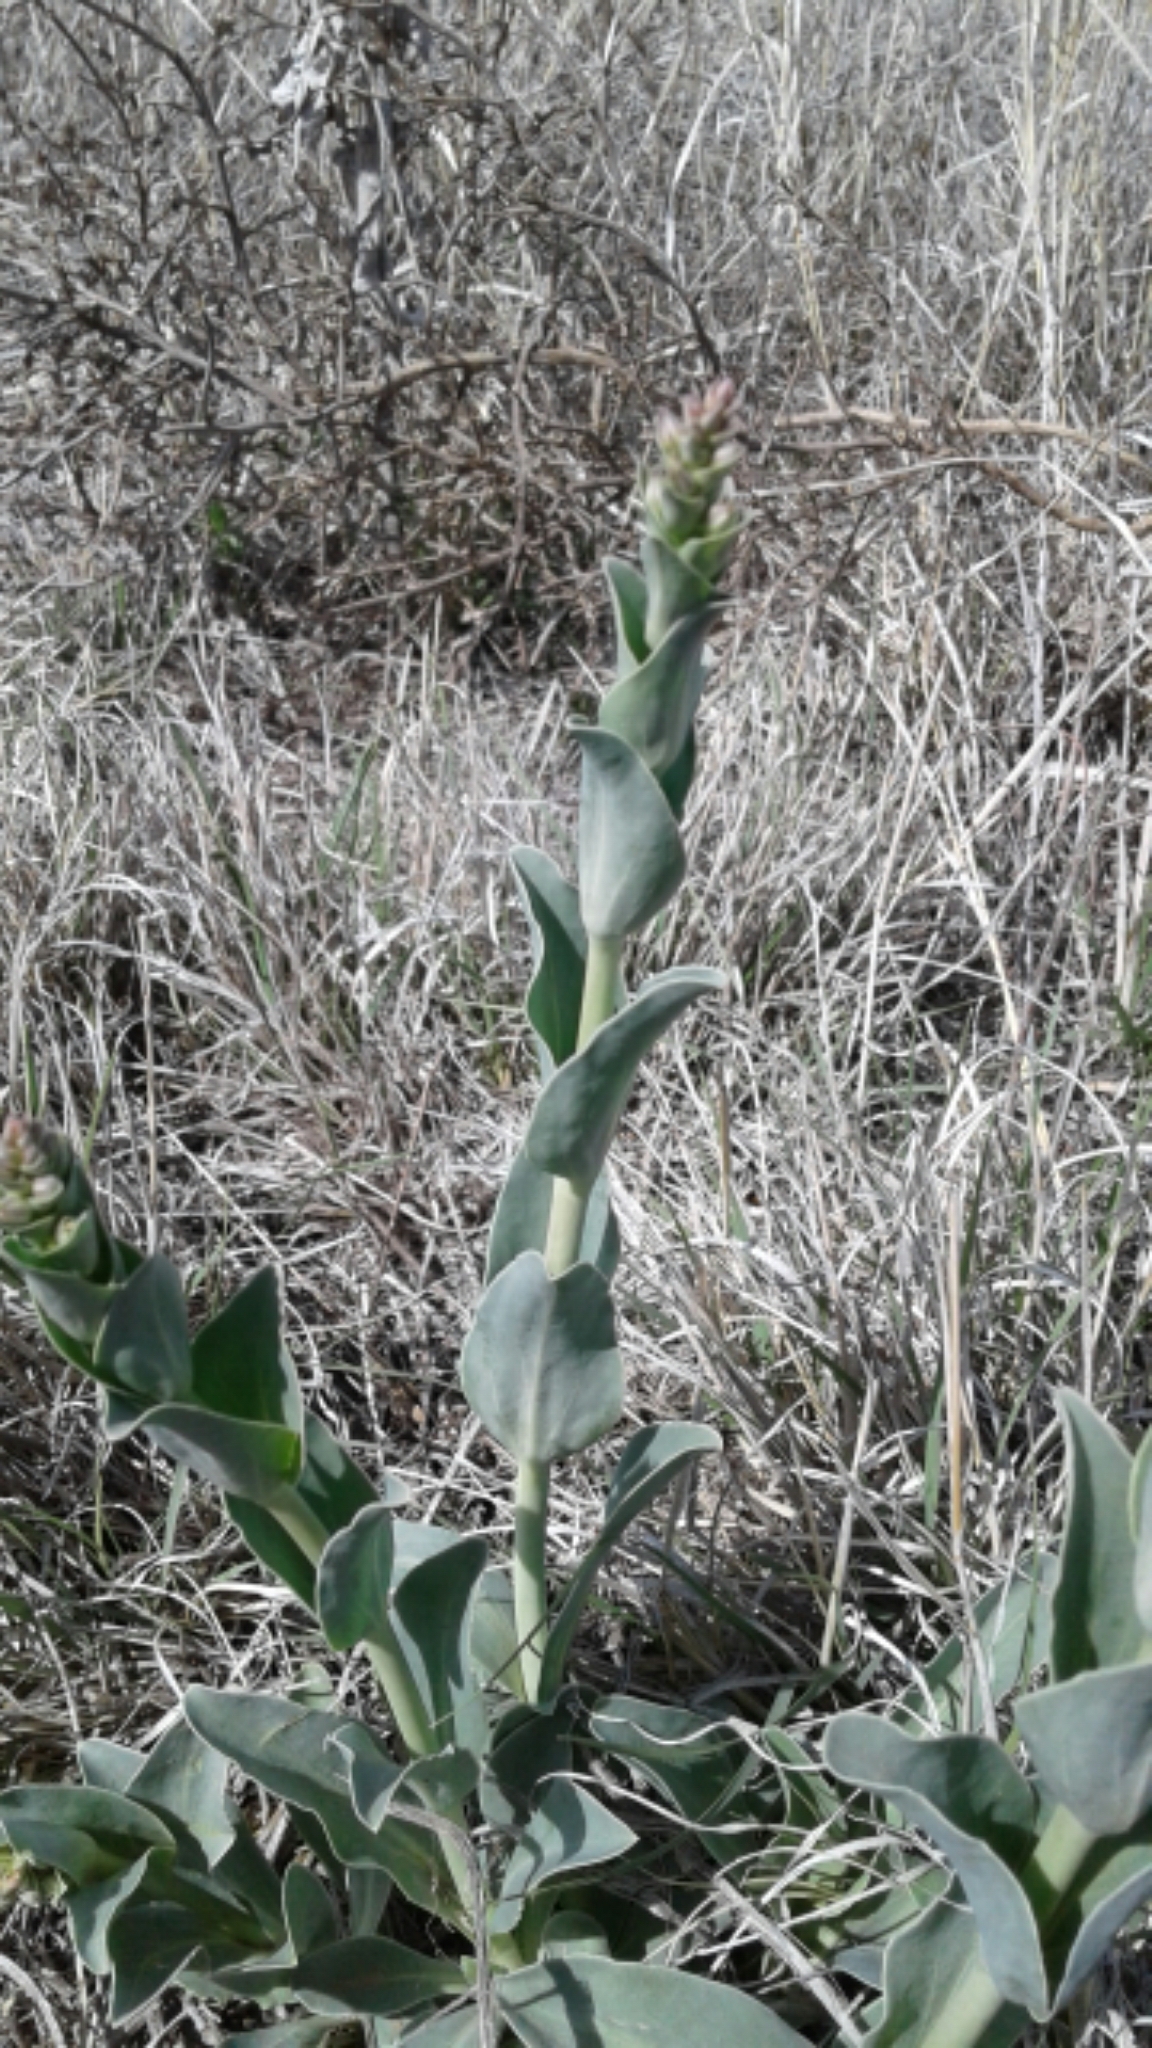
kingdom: Plantae
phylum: Tracheophyta
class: Magnoliopsida
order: Lamiales
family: Plantaginaceae
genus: Penstemon
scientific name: Penstemon fendleri
